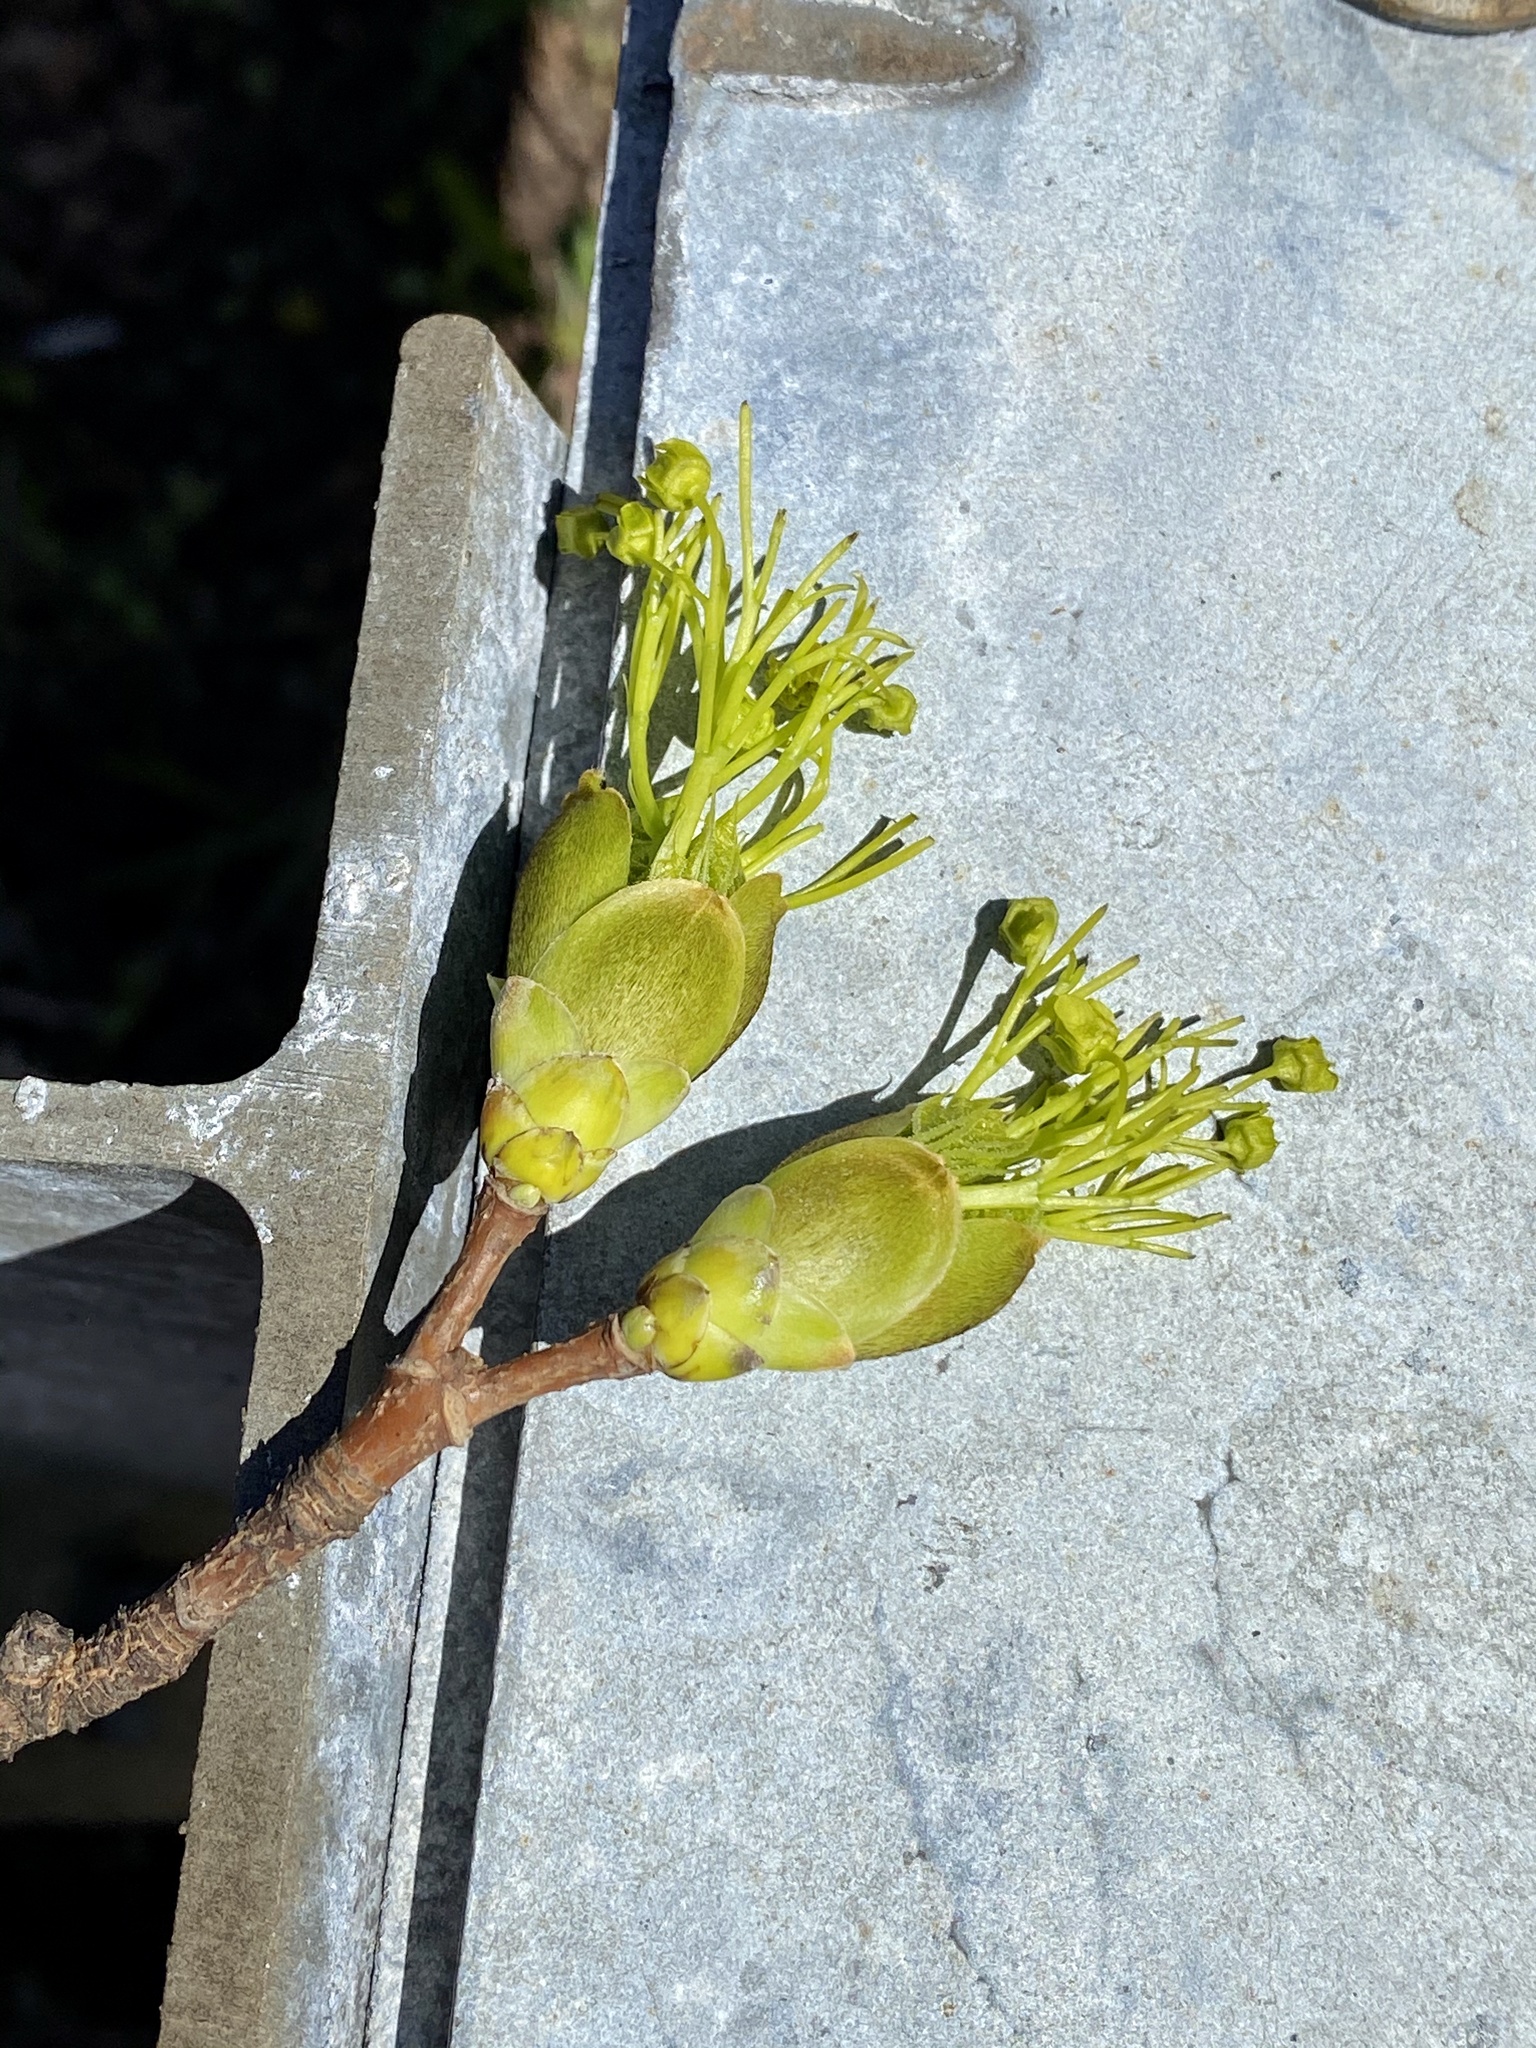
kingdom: Plantae
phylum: Tracheophyta
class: Magnoliopsida
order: Sapindales
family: Sapindaceae
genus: Acer
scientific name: Acer platanoides
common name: Norway maple
